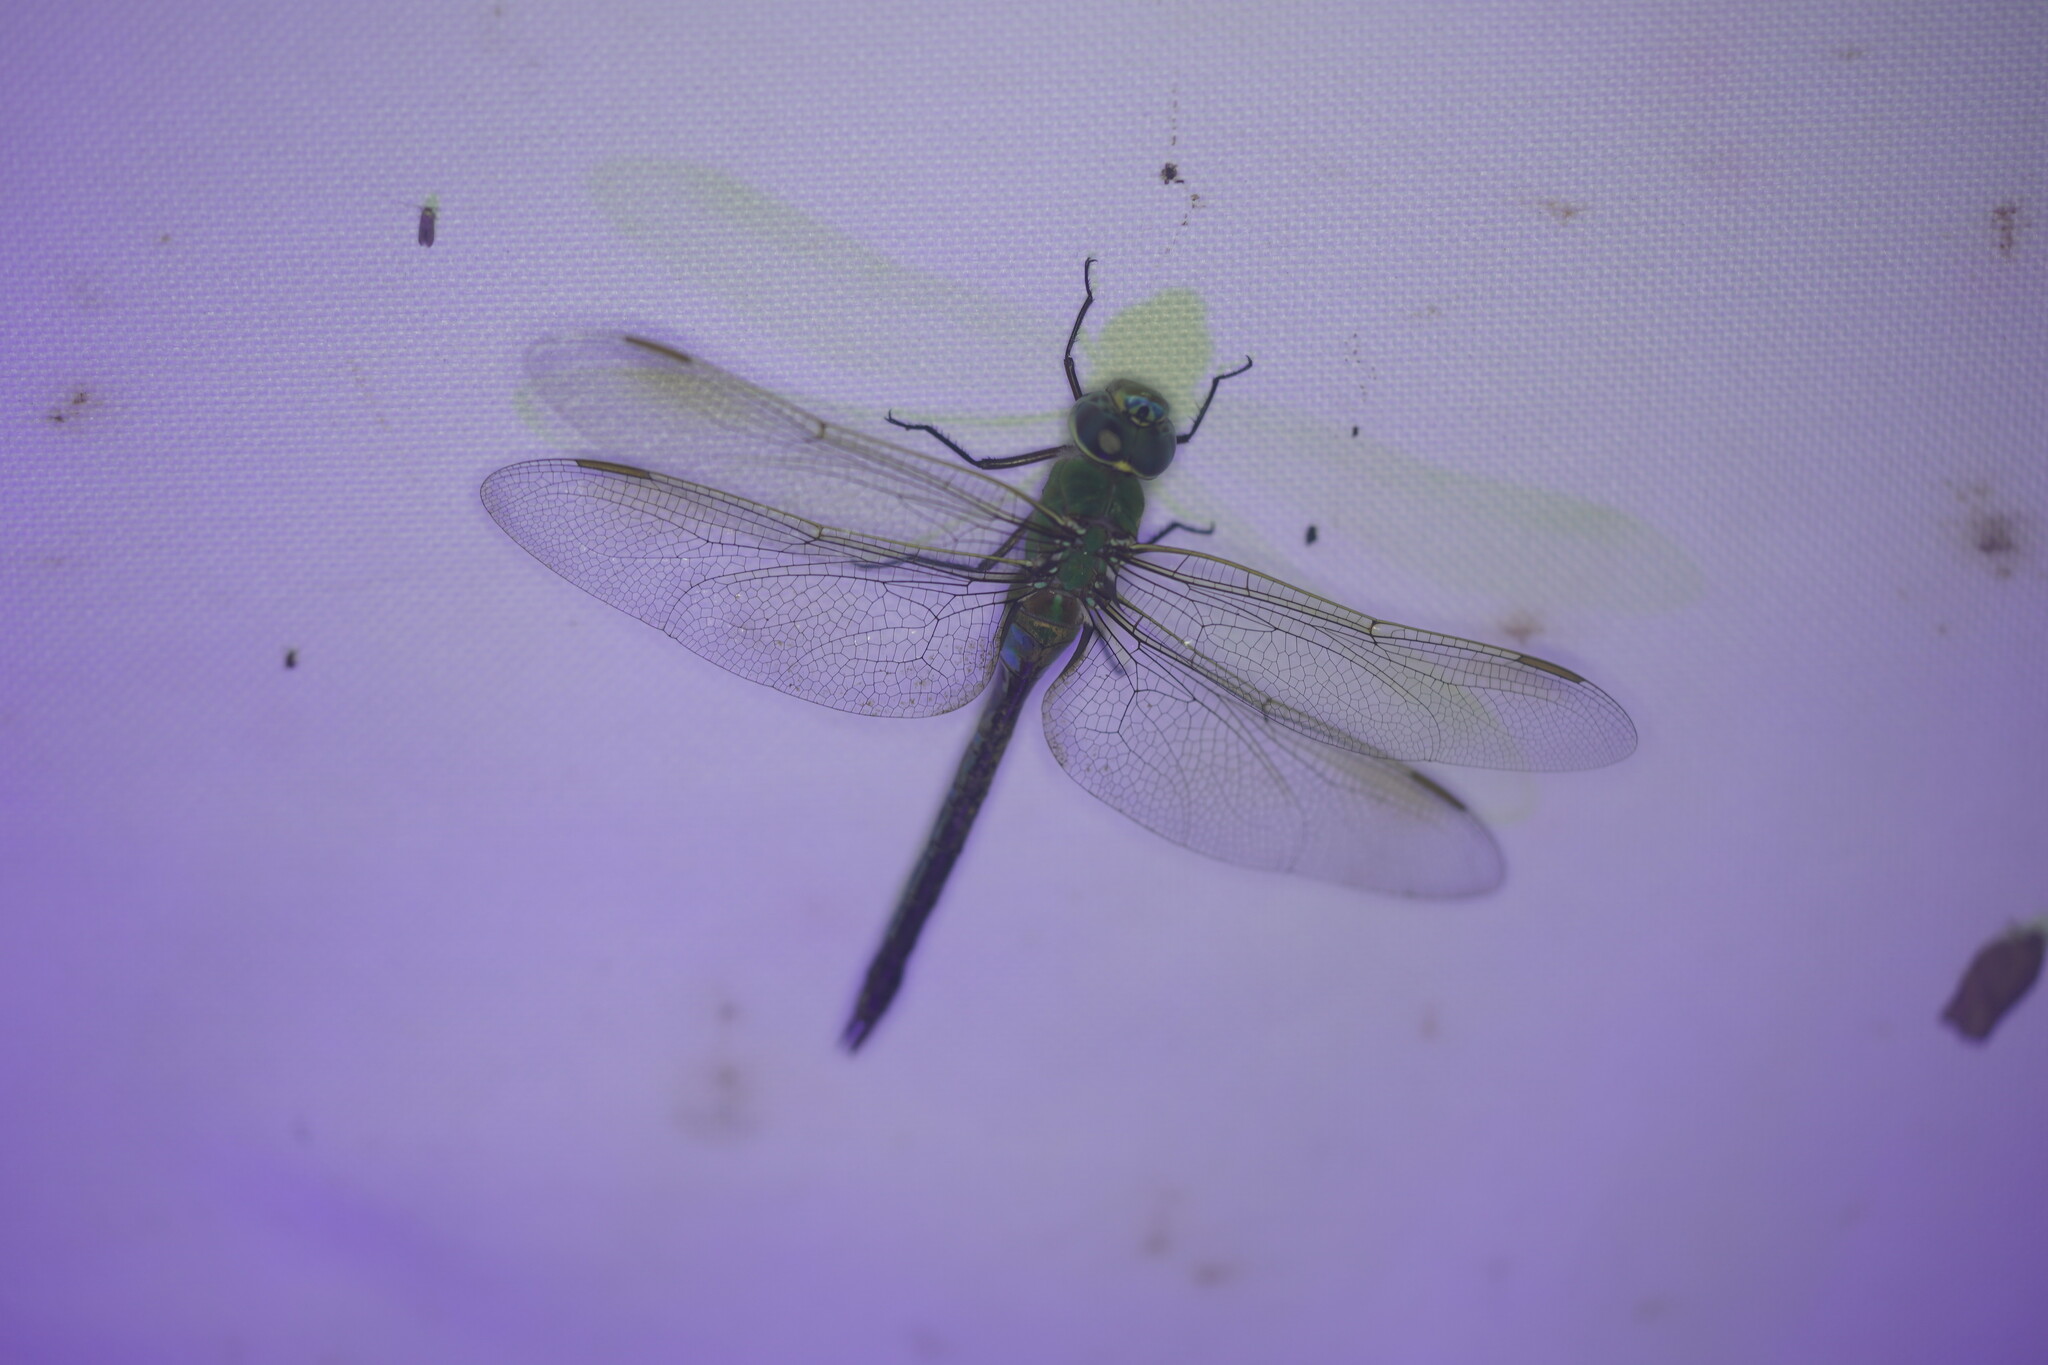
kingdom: Animalia
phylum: Arthropoda
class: Insecta
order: Odonata
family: Aeshnidae
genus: Anax
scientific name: Anax junius
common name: Common green darner
